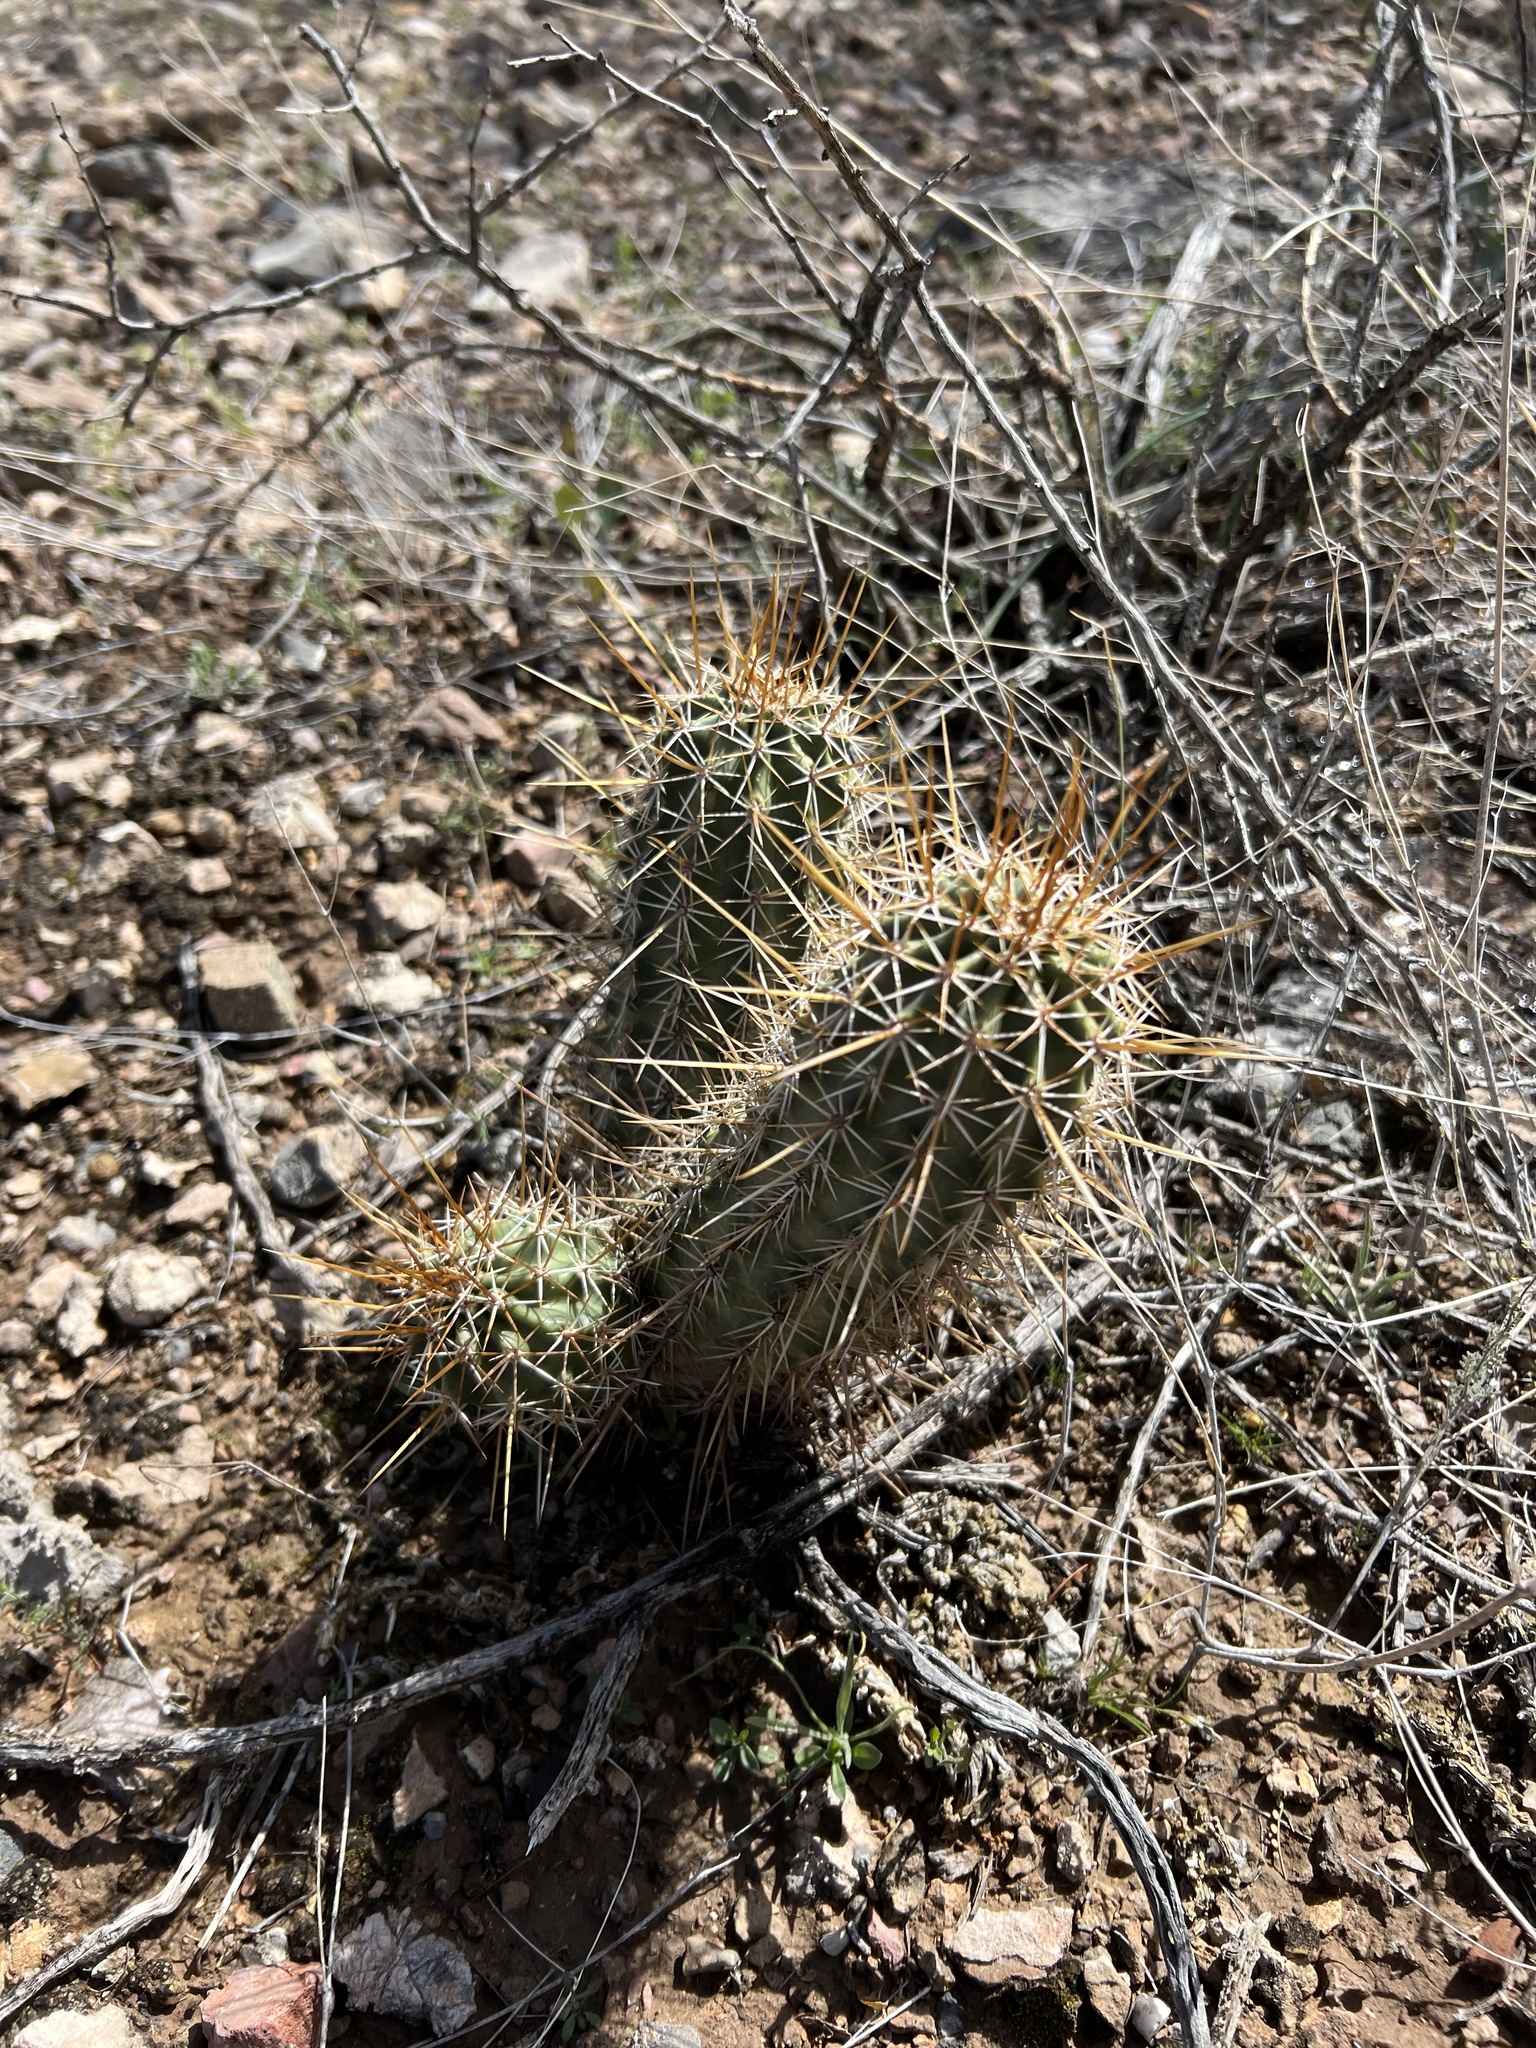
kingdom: Plantae
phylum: Tracheophyta
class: Magnoliopsida
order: Caryophyllales
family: Cactaceae
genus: Echinocereus
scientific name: Echinocereus fasciculatus
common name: Bundle hedgehog
